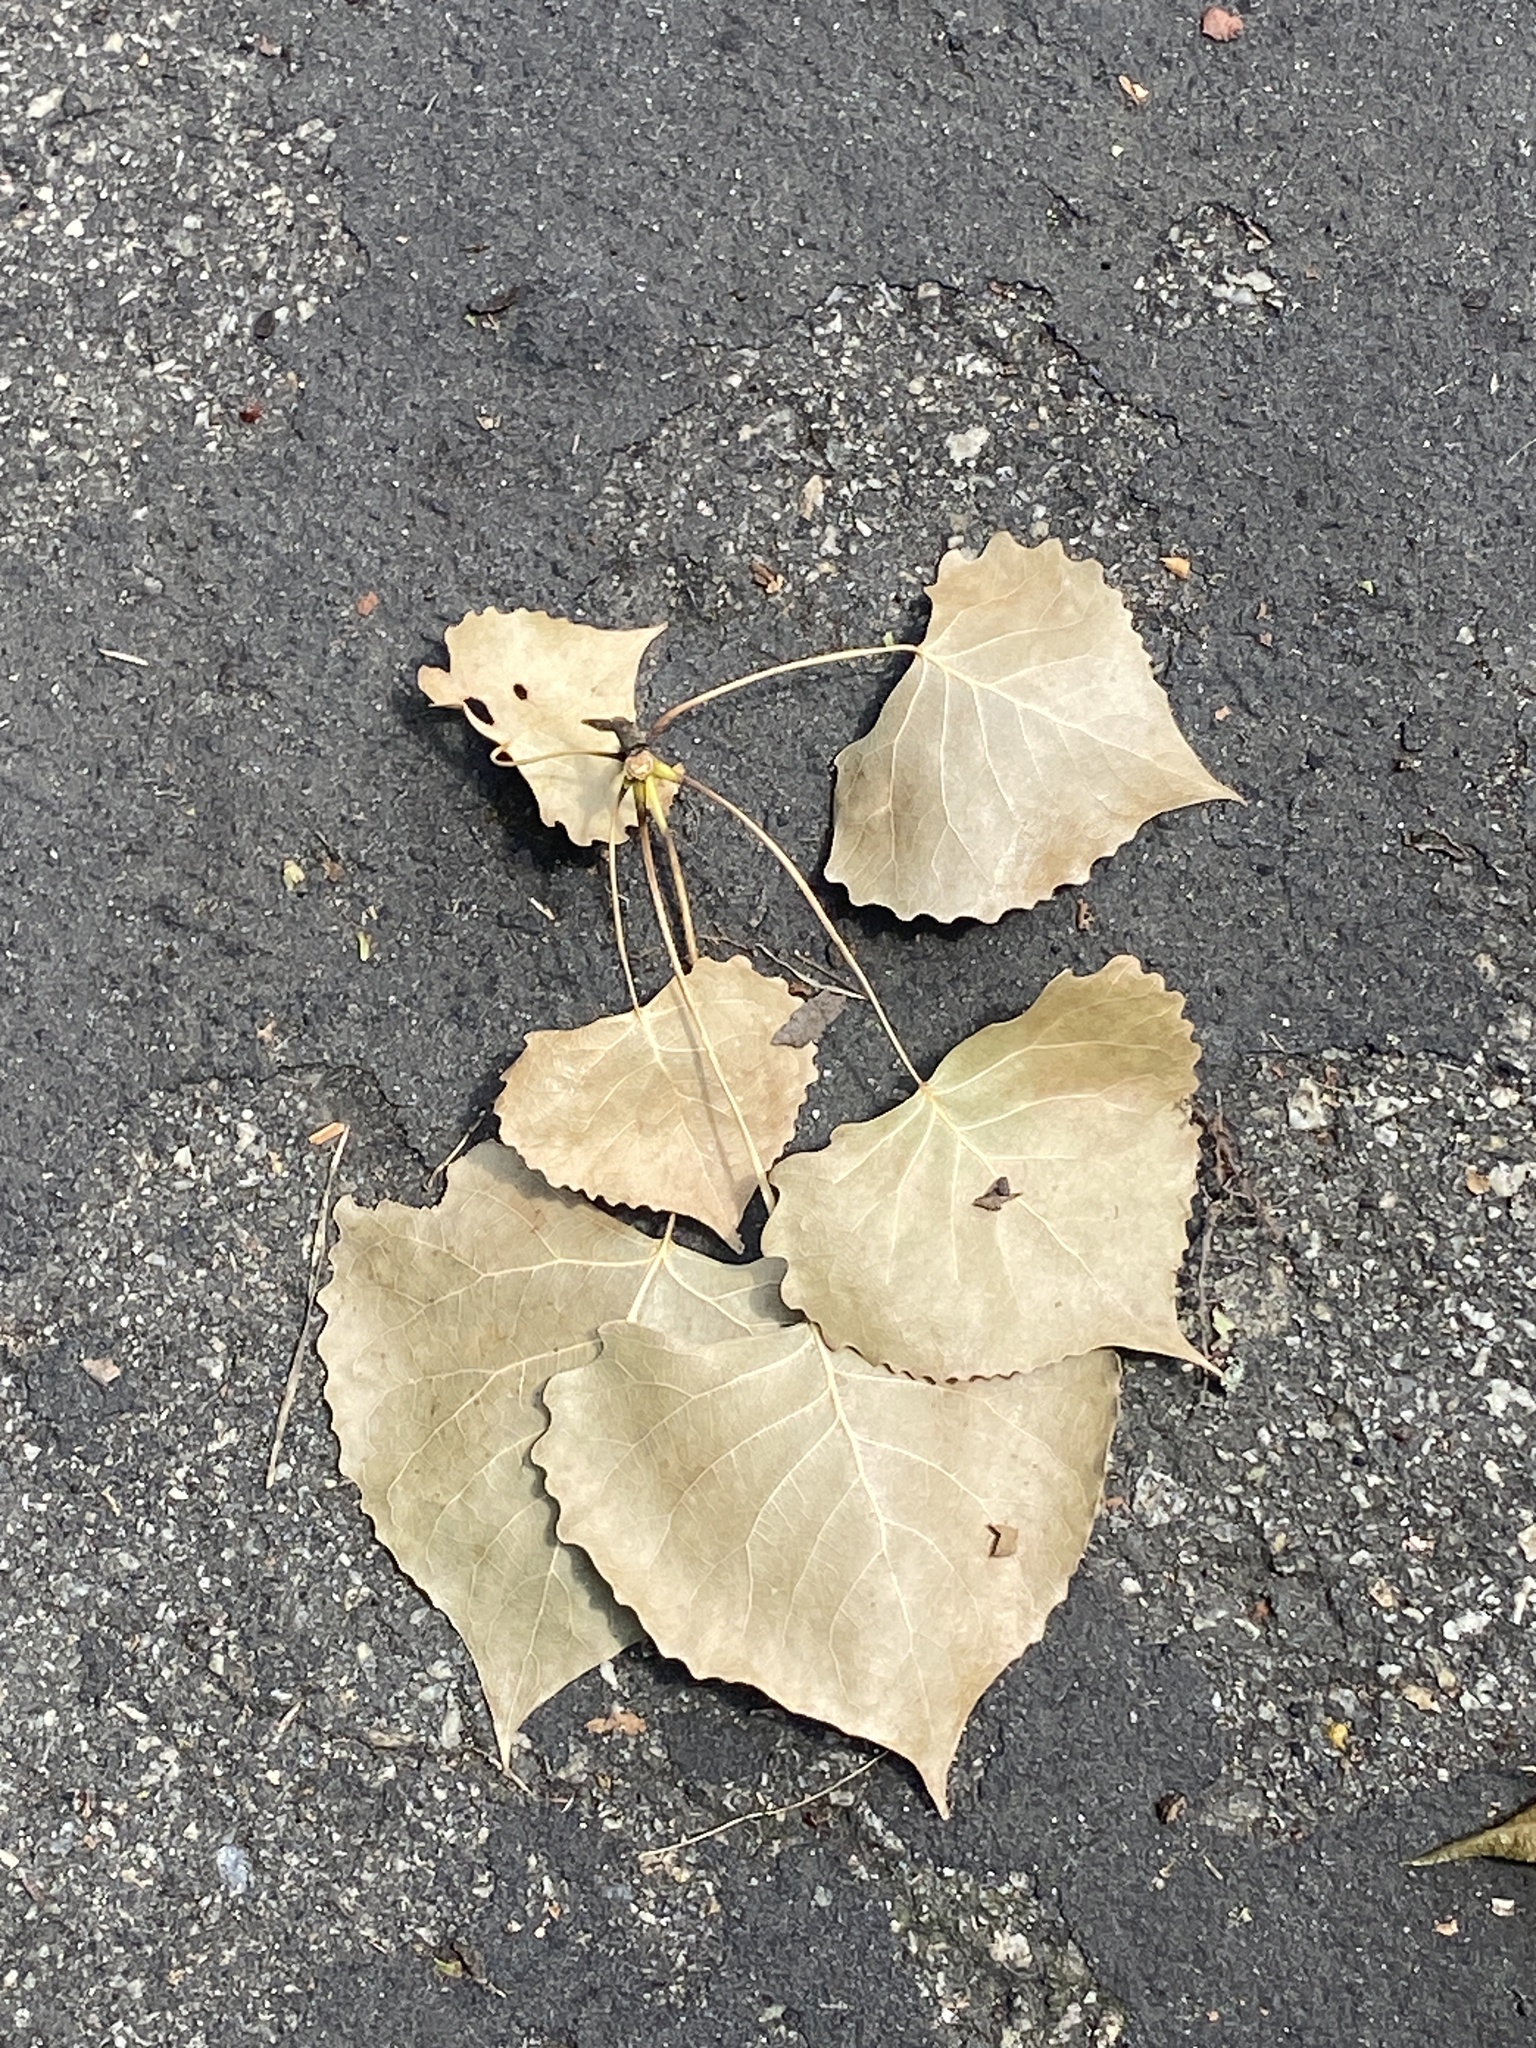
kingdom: Plantae
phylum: Tracheophyta
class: Magnoliopsida
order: Malpighiales
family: Salicaceae
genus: Populus
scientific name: Populus deltoides
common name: Eastern cottonwood
